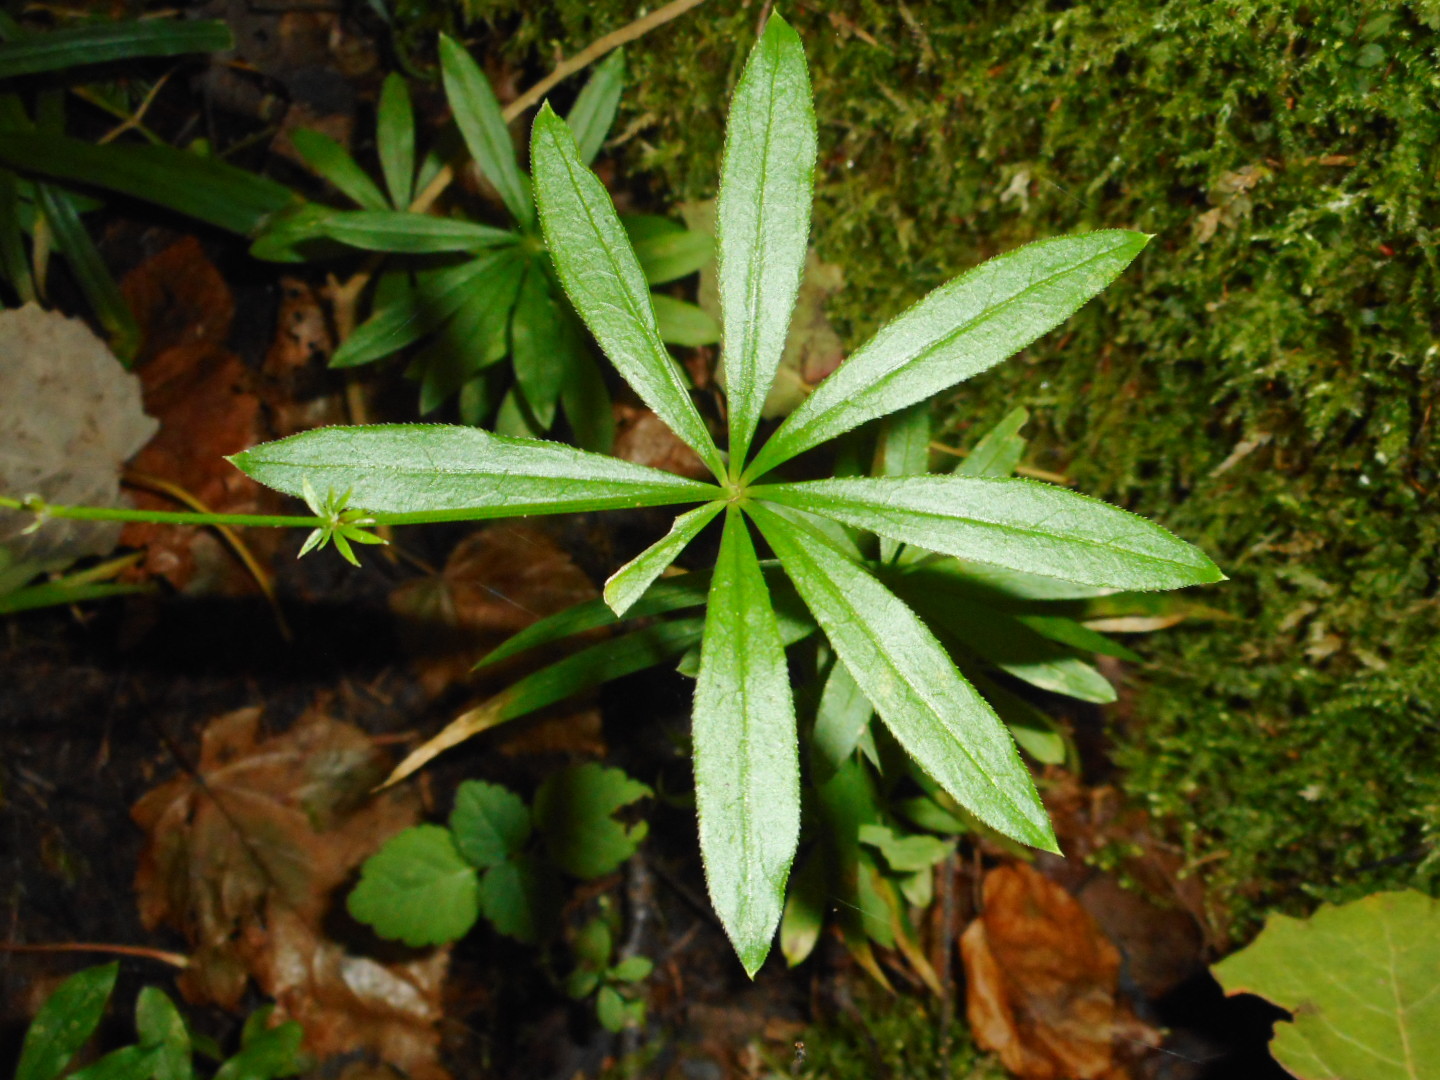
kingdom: Plantae
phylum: Tracheophyta
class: Magnoliopsida
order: Gentianales
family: Rubiaceae
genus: Galium
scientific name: Galium odoratum
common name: Sweet woodruff
